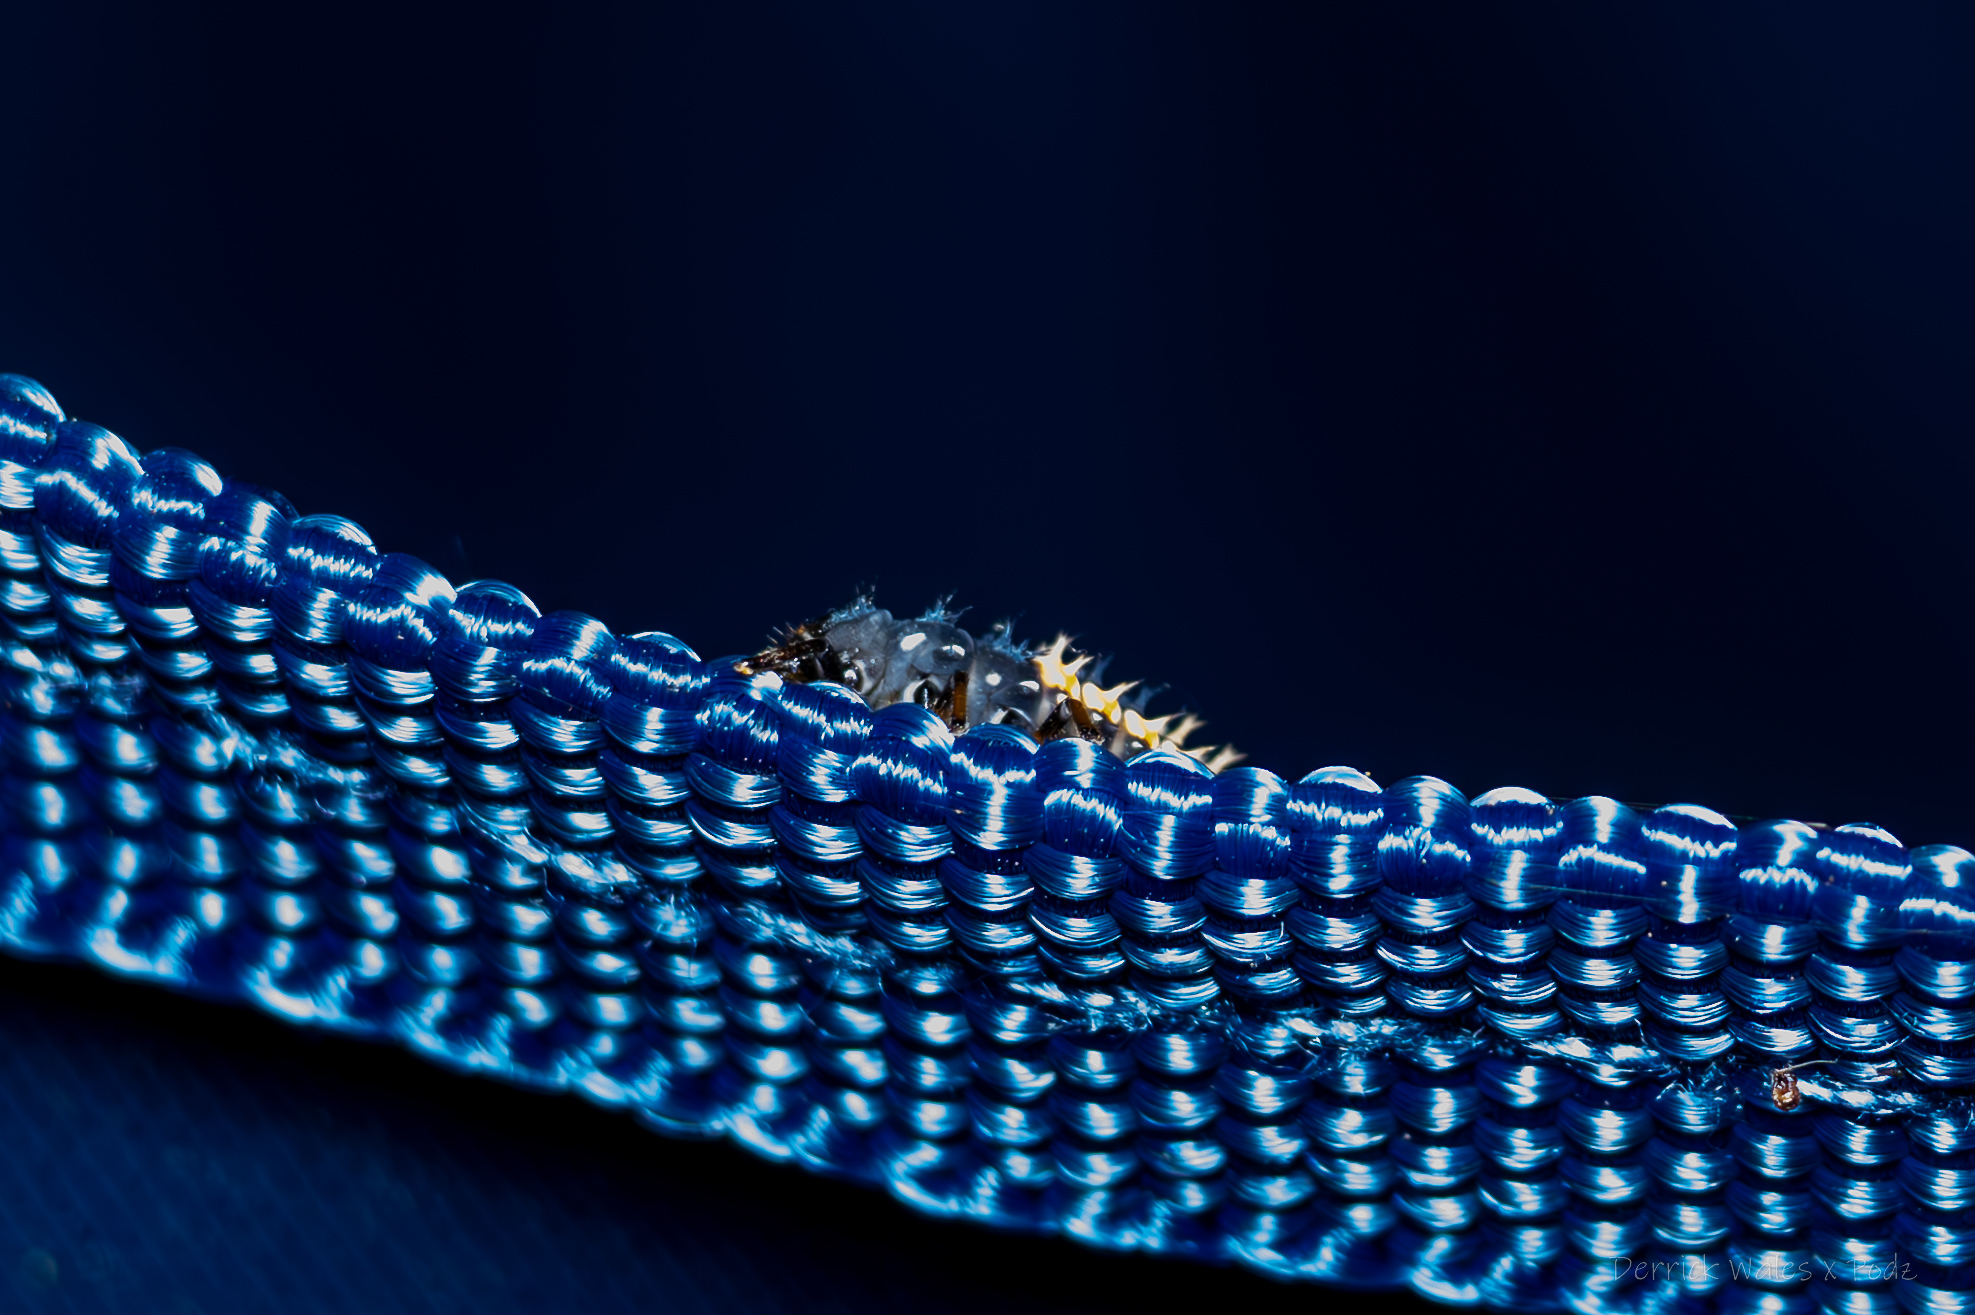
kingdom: Animalia
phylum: Arthropoda
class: Insecta
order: Coleoptera
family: Coccinellidae
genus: Harmonia
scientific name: Harmonia axyridis
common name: Harlequin ladybird
